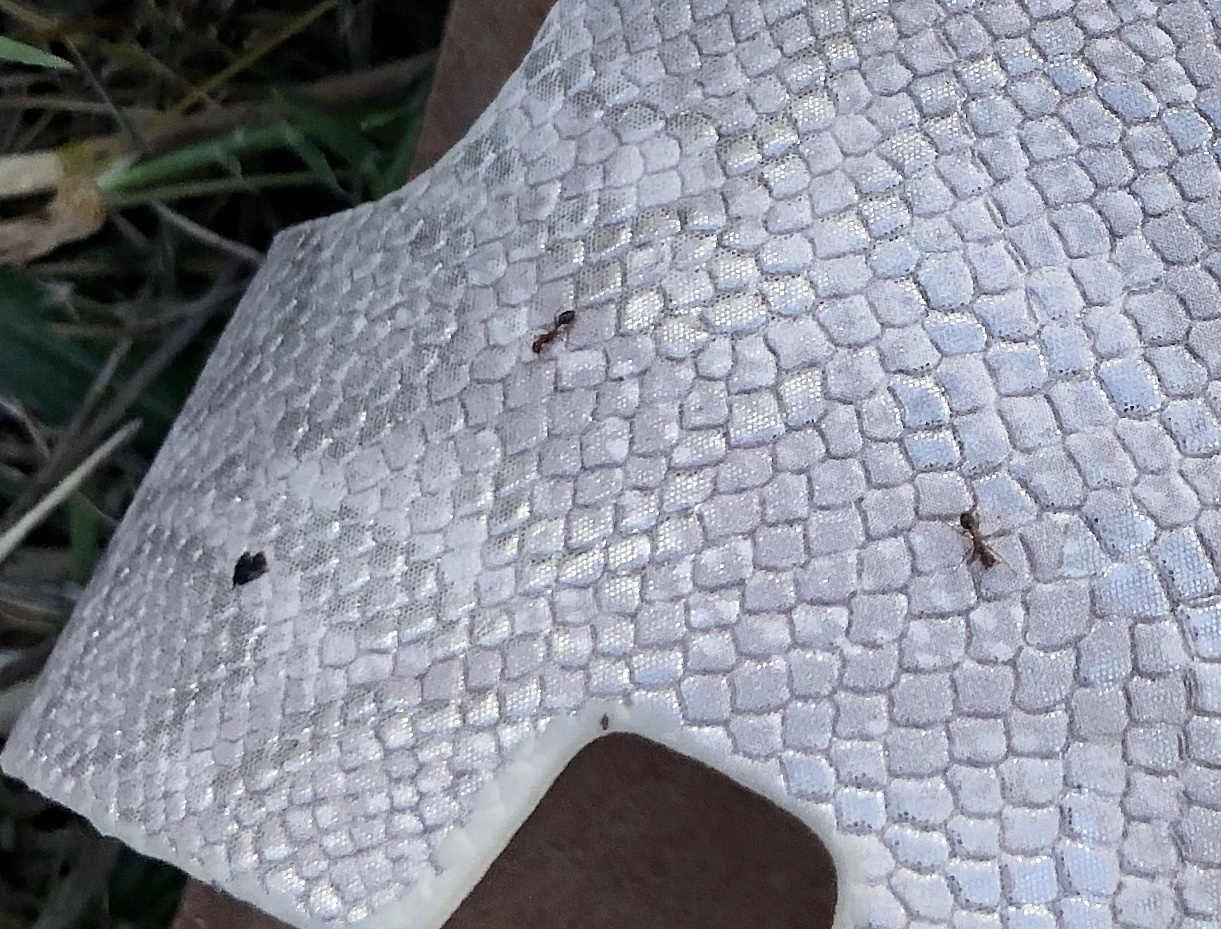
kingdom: Animalia
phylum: Arthropoda
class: Insecta
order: Hymenoptera
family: Formicidae
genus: Solenopsis
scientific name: Solenopsis invicta
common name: Red imported fire ant
